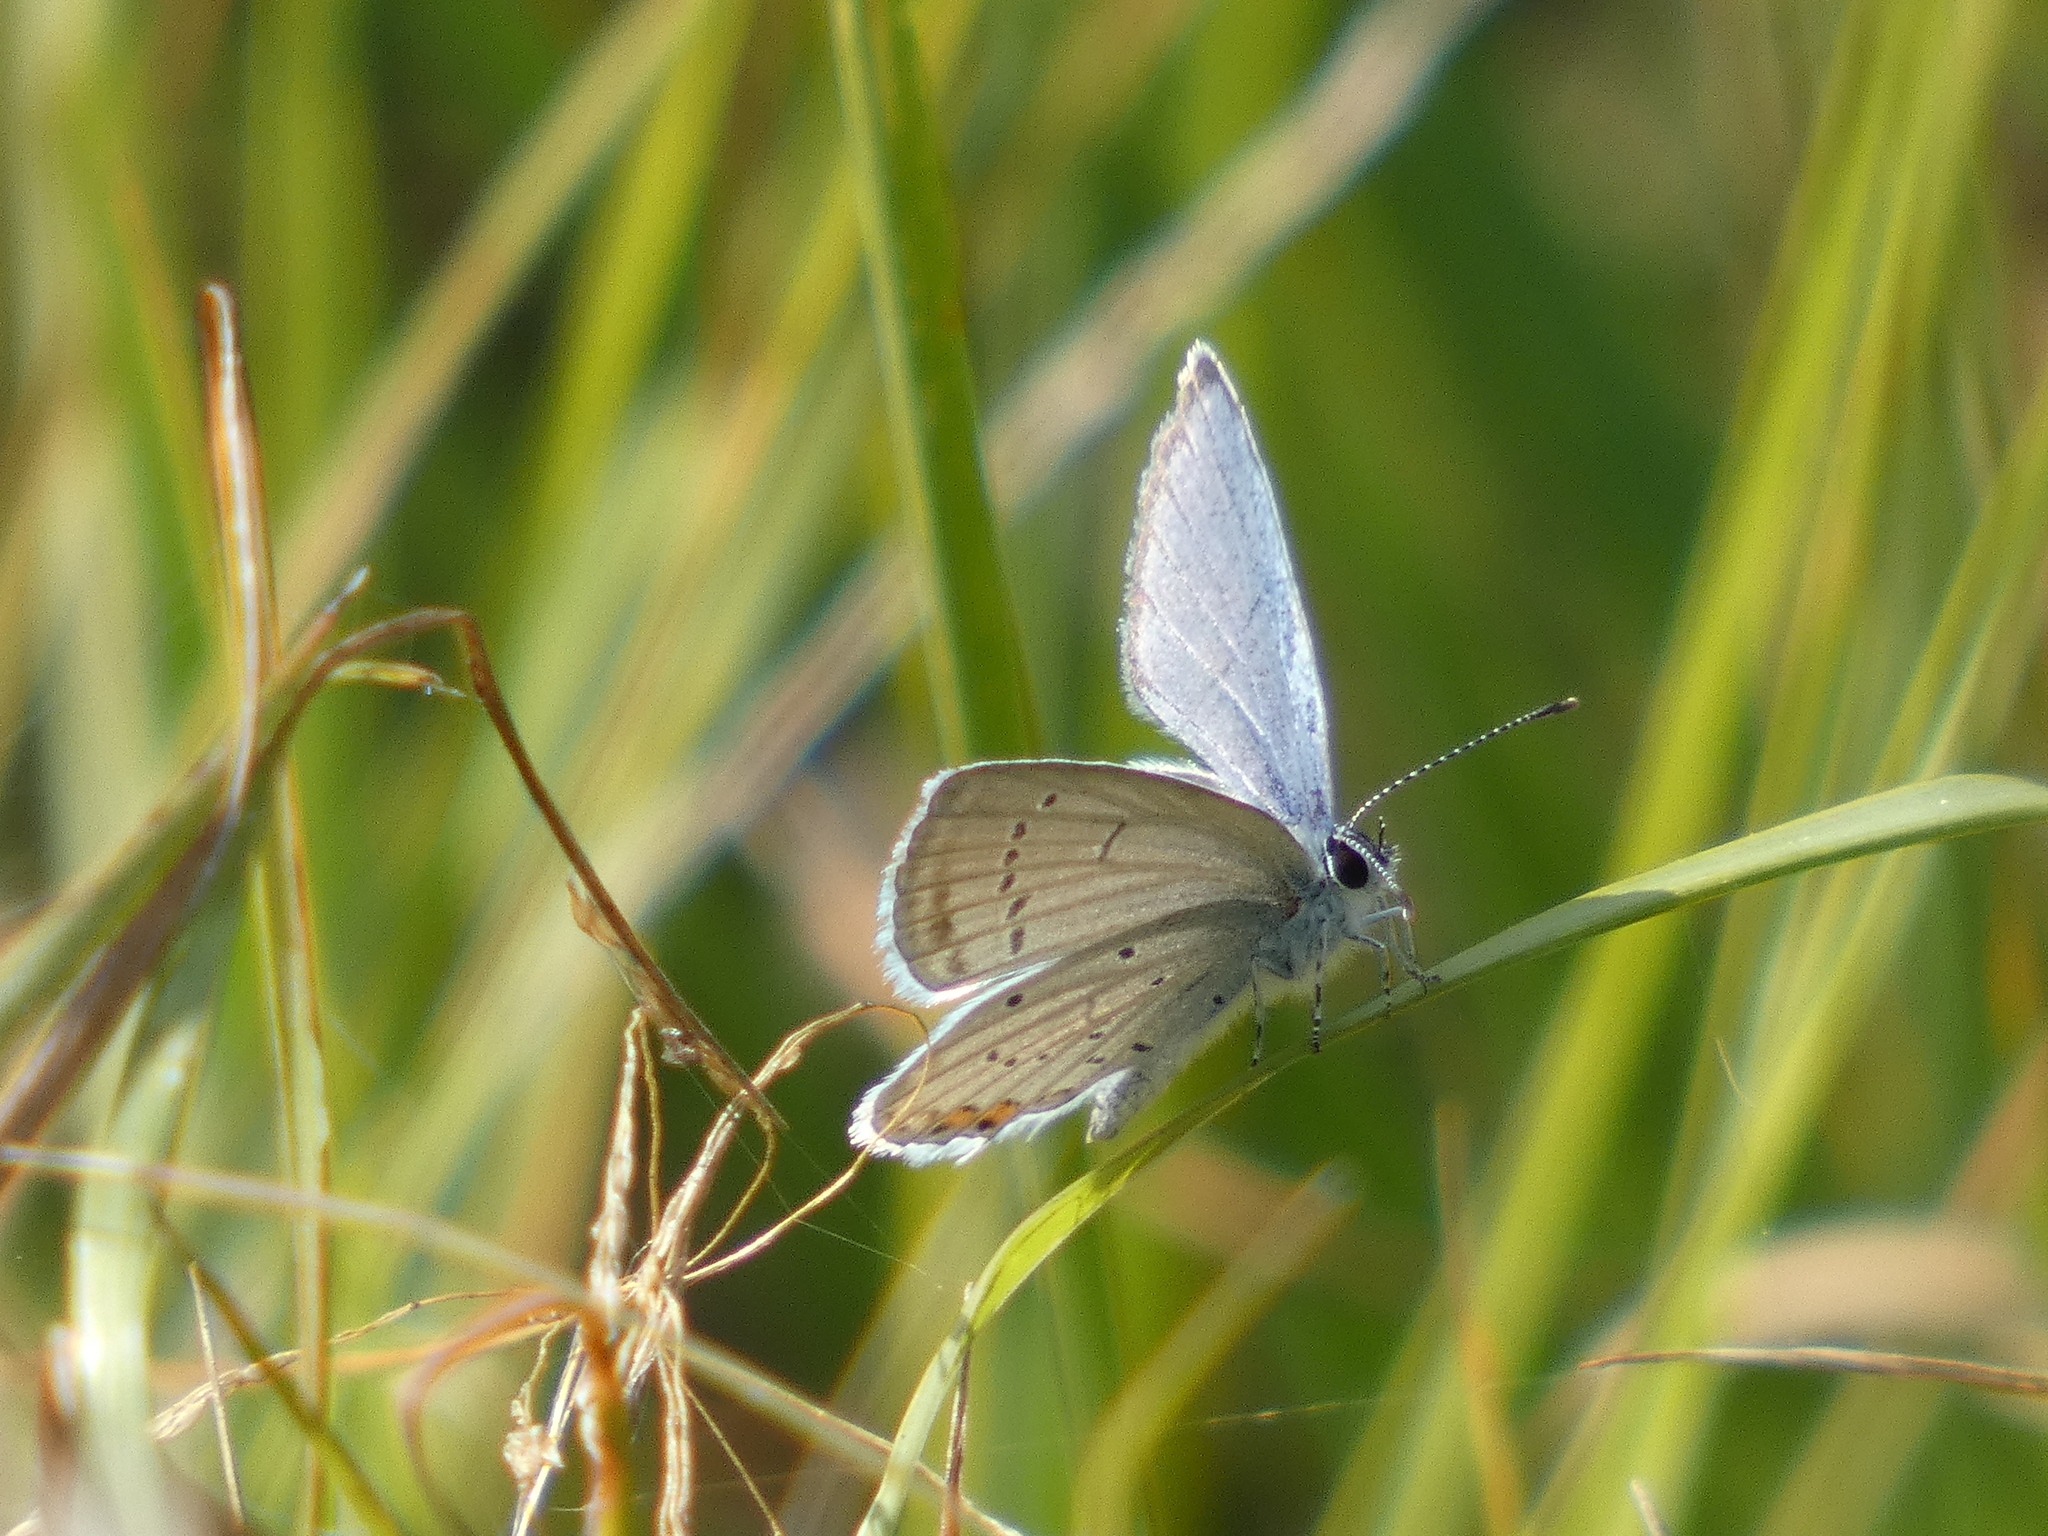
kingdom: Animalia
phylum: Arthropoda
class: Insecta
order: Lepidoptera
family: Lycaenidae
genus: Elkalyce
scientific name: Elkalyce argiades
